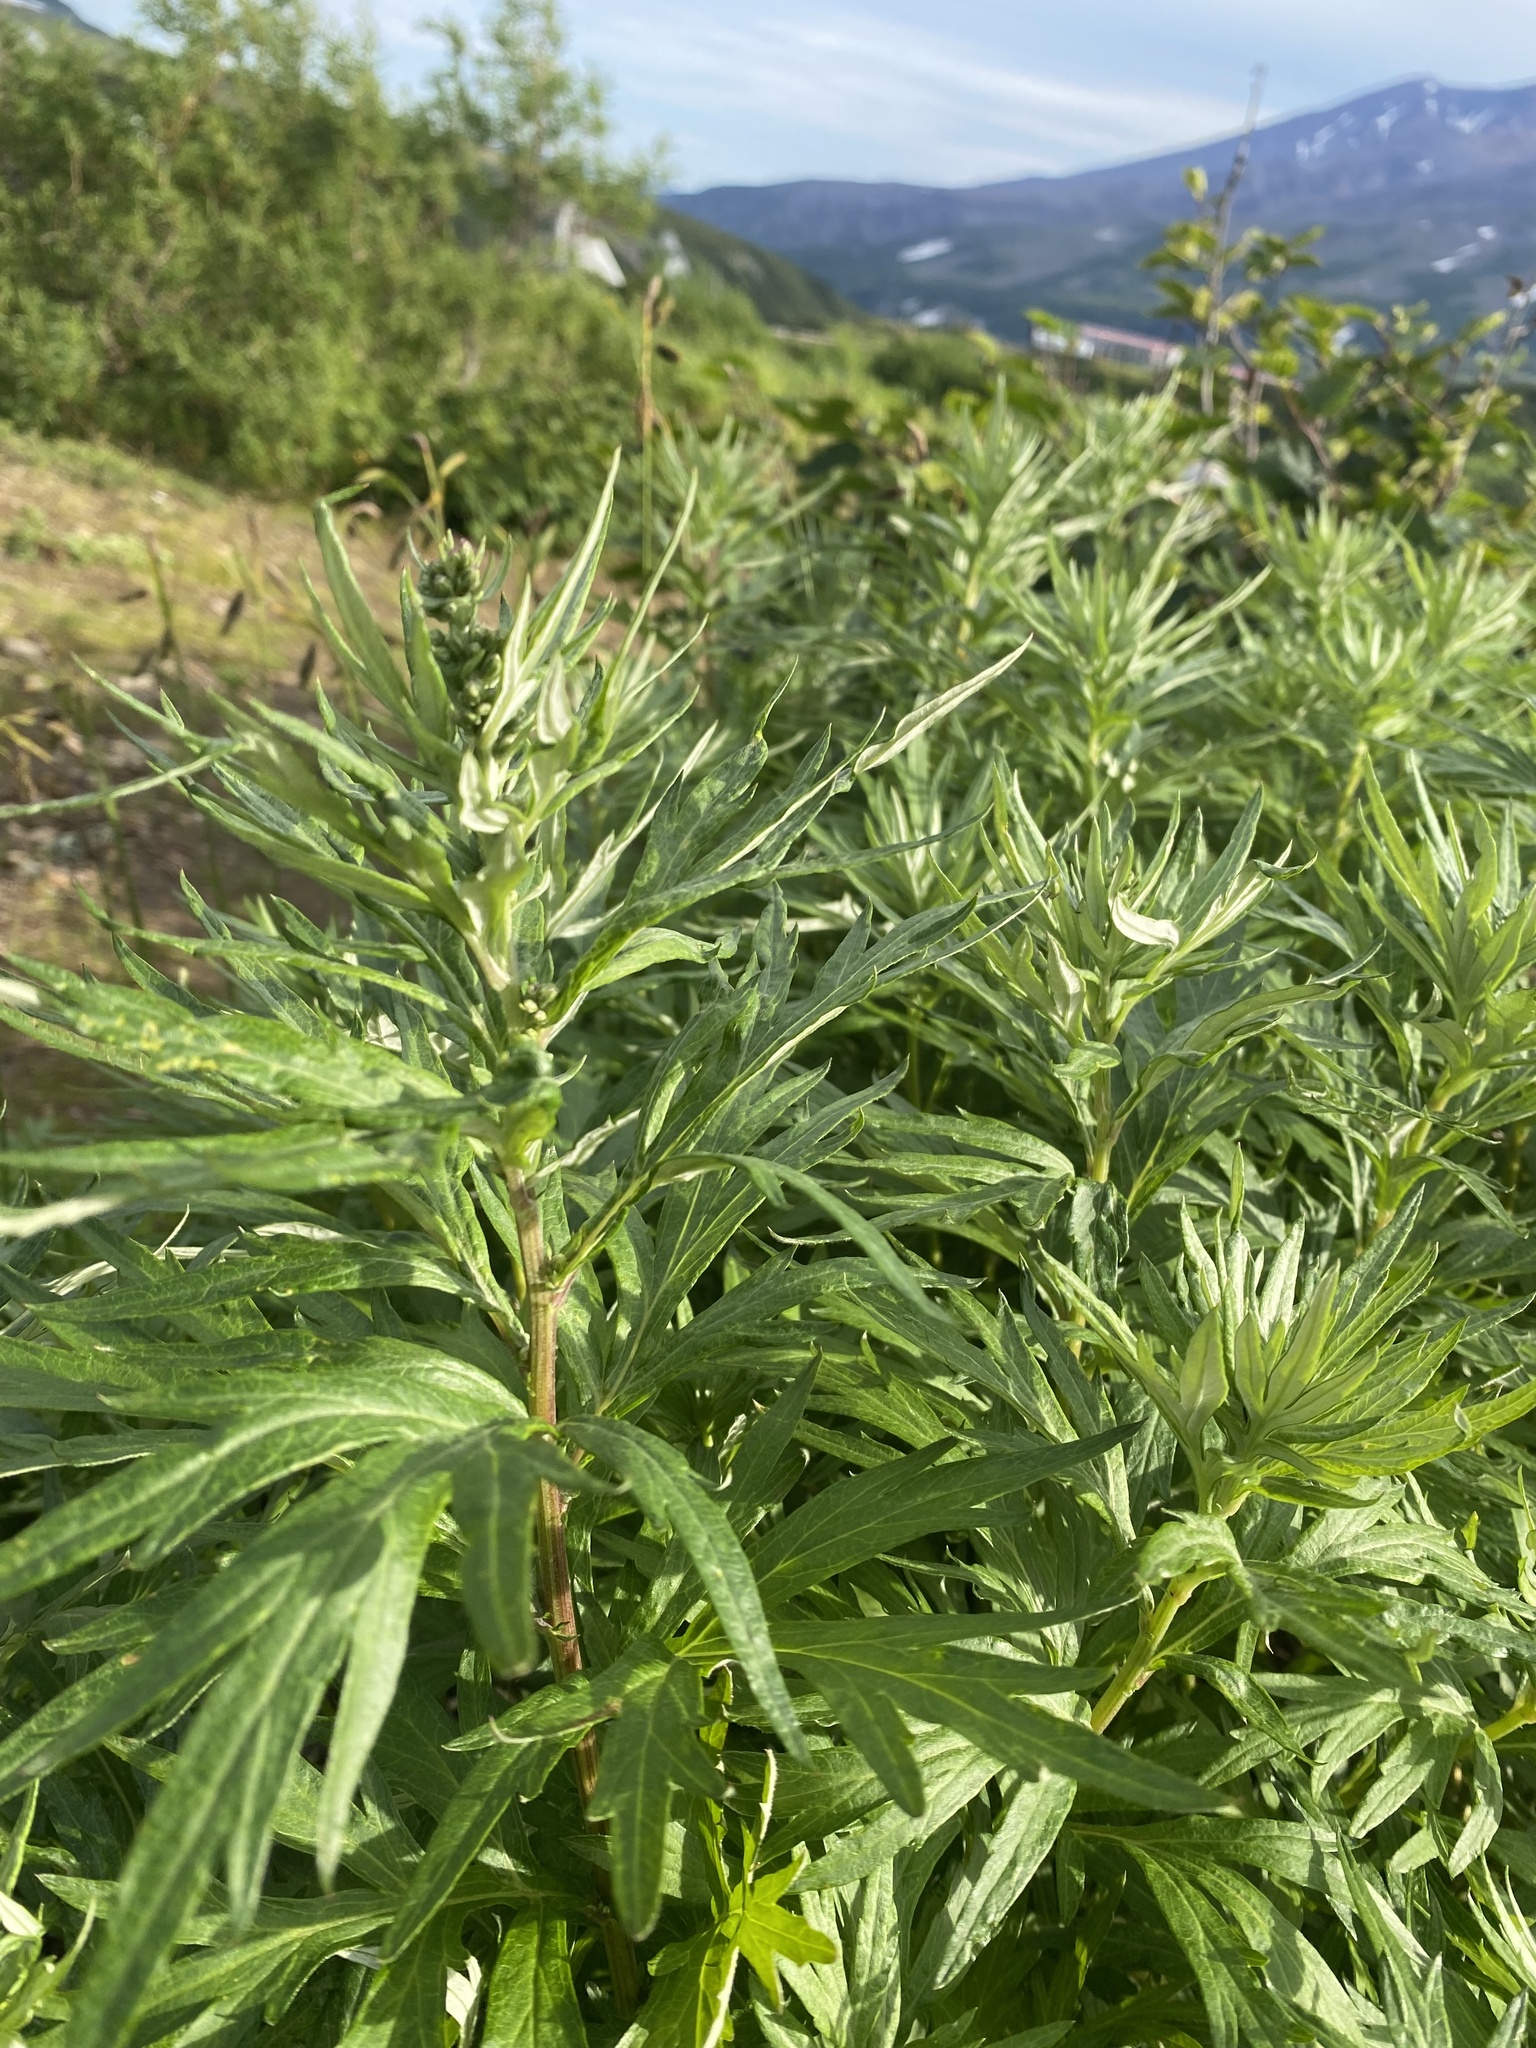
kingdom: Plantae
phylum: Tracheophyta
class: Magnoliopsida
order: Asterales
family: Asteraceae
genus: Artemisia
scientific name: Artemisia vulgaris
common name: Mugwort
